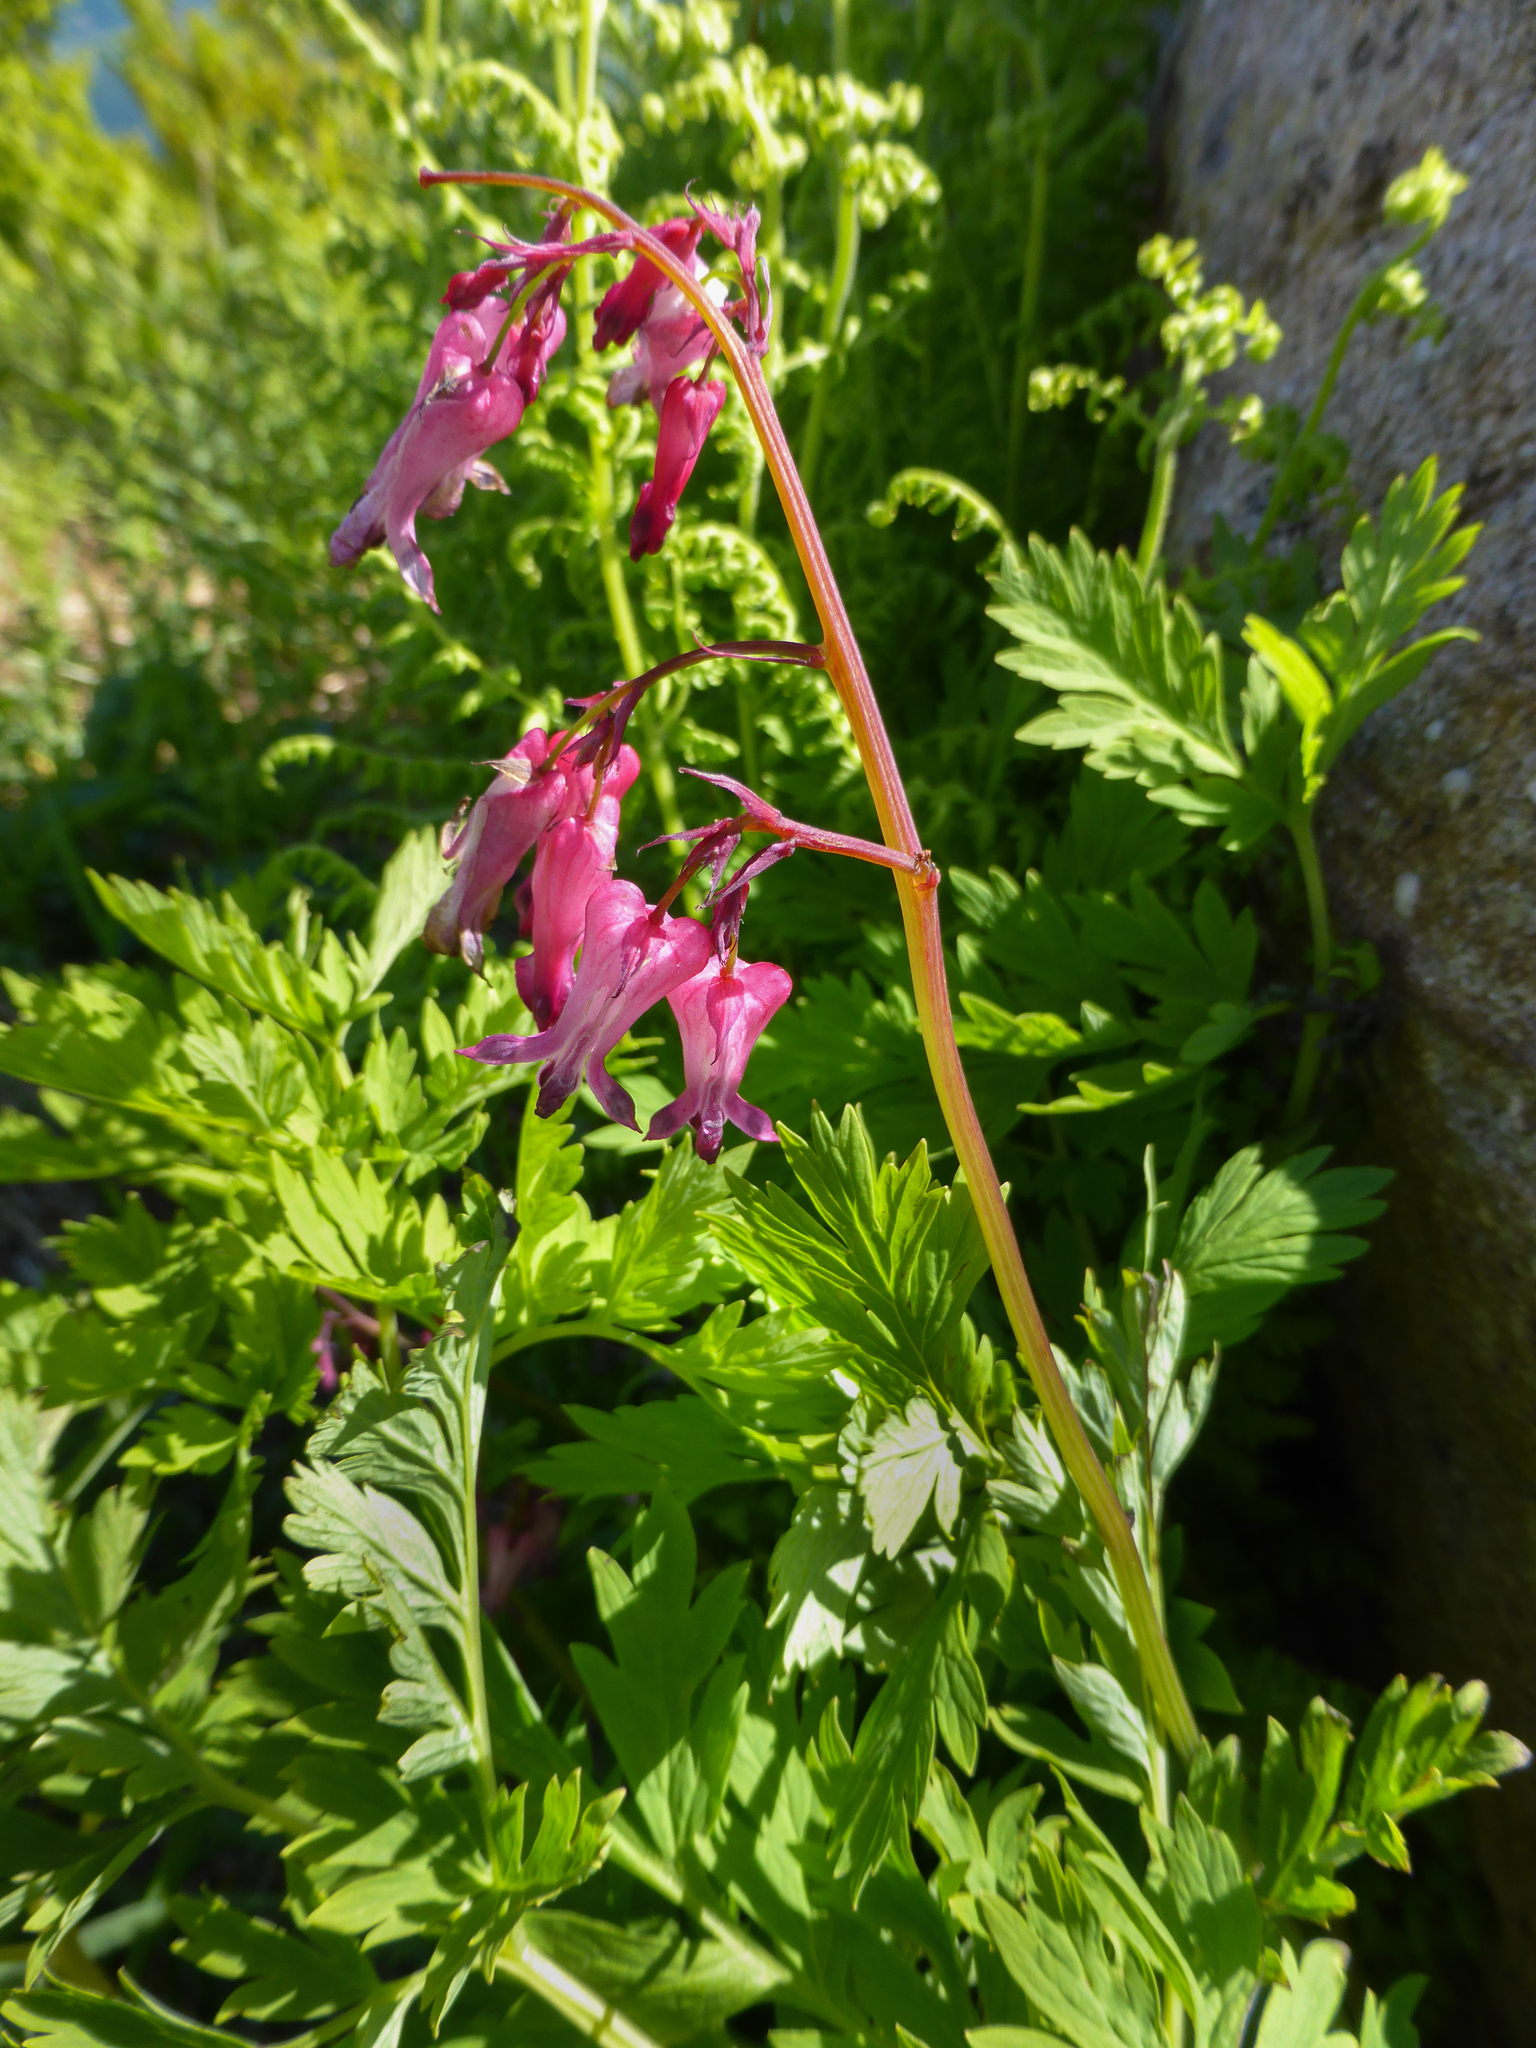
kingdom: Plantae
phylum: Tracheophyta
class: Magnoliopsida
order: Ranunculales
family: Papaveraceae
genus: Dicentra
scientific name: Dicentra eximia
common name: Turkey-corn
